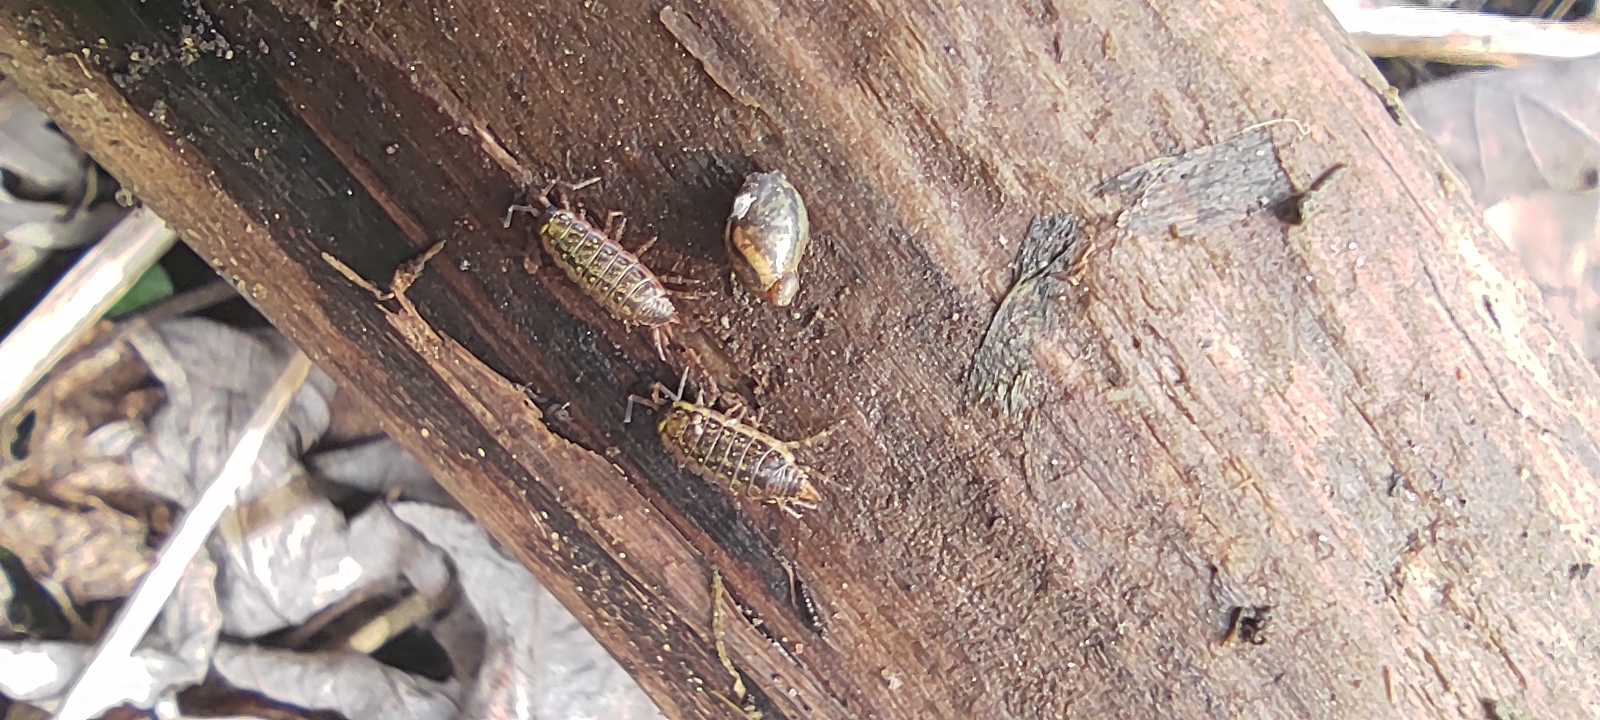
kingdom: Animalia
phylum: Arthropoda
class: Malacostraca
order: Isopoda
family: Philosciidae
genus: Philoscia
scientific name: Philoscia muscorum
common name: Common striped woodlouse
